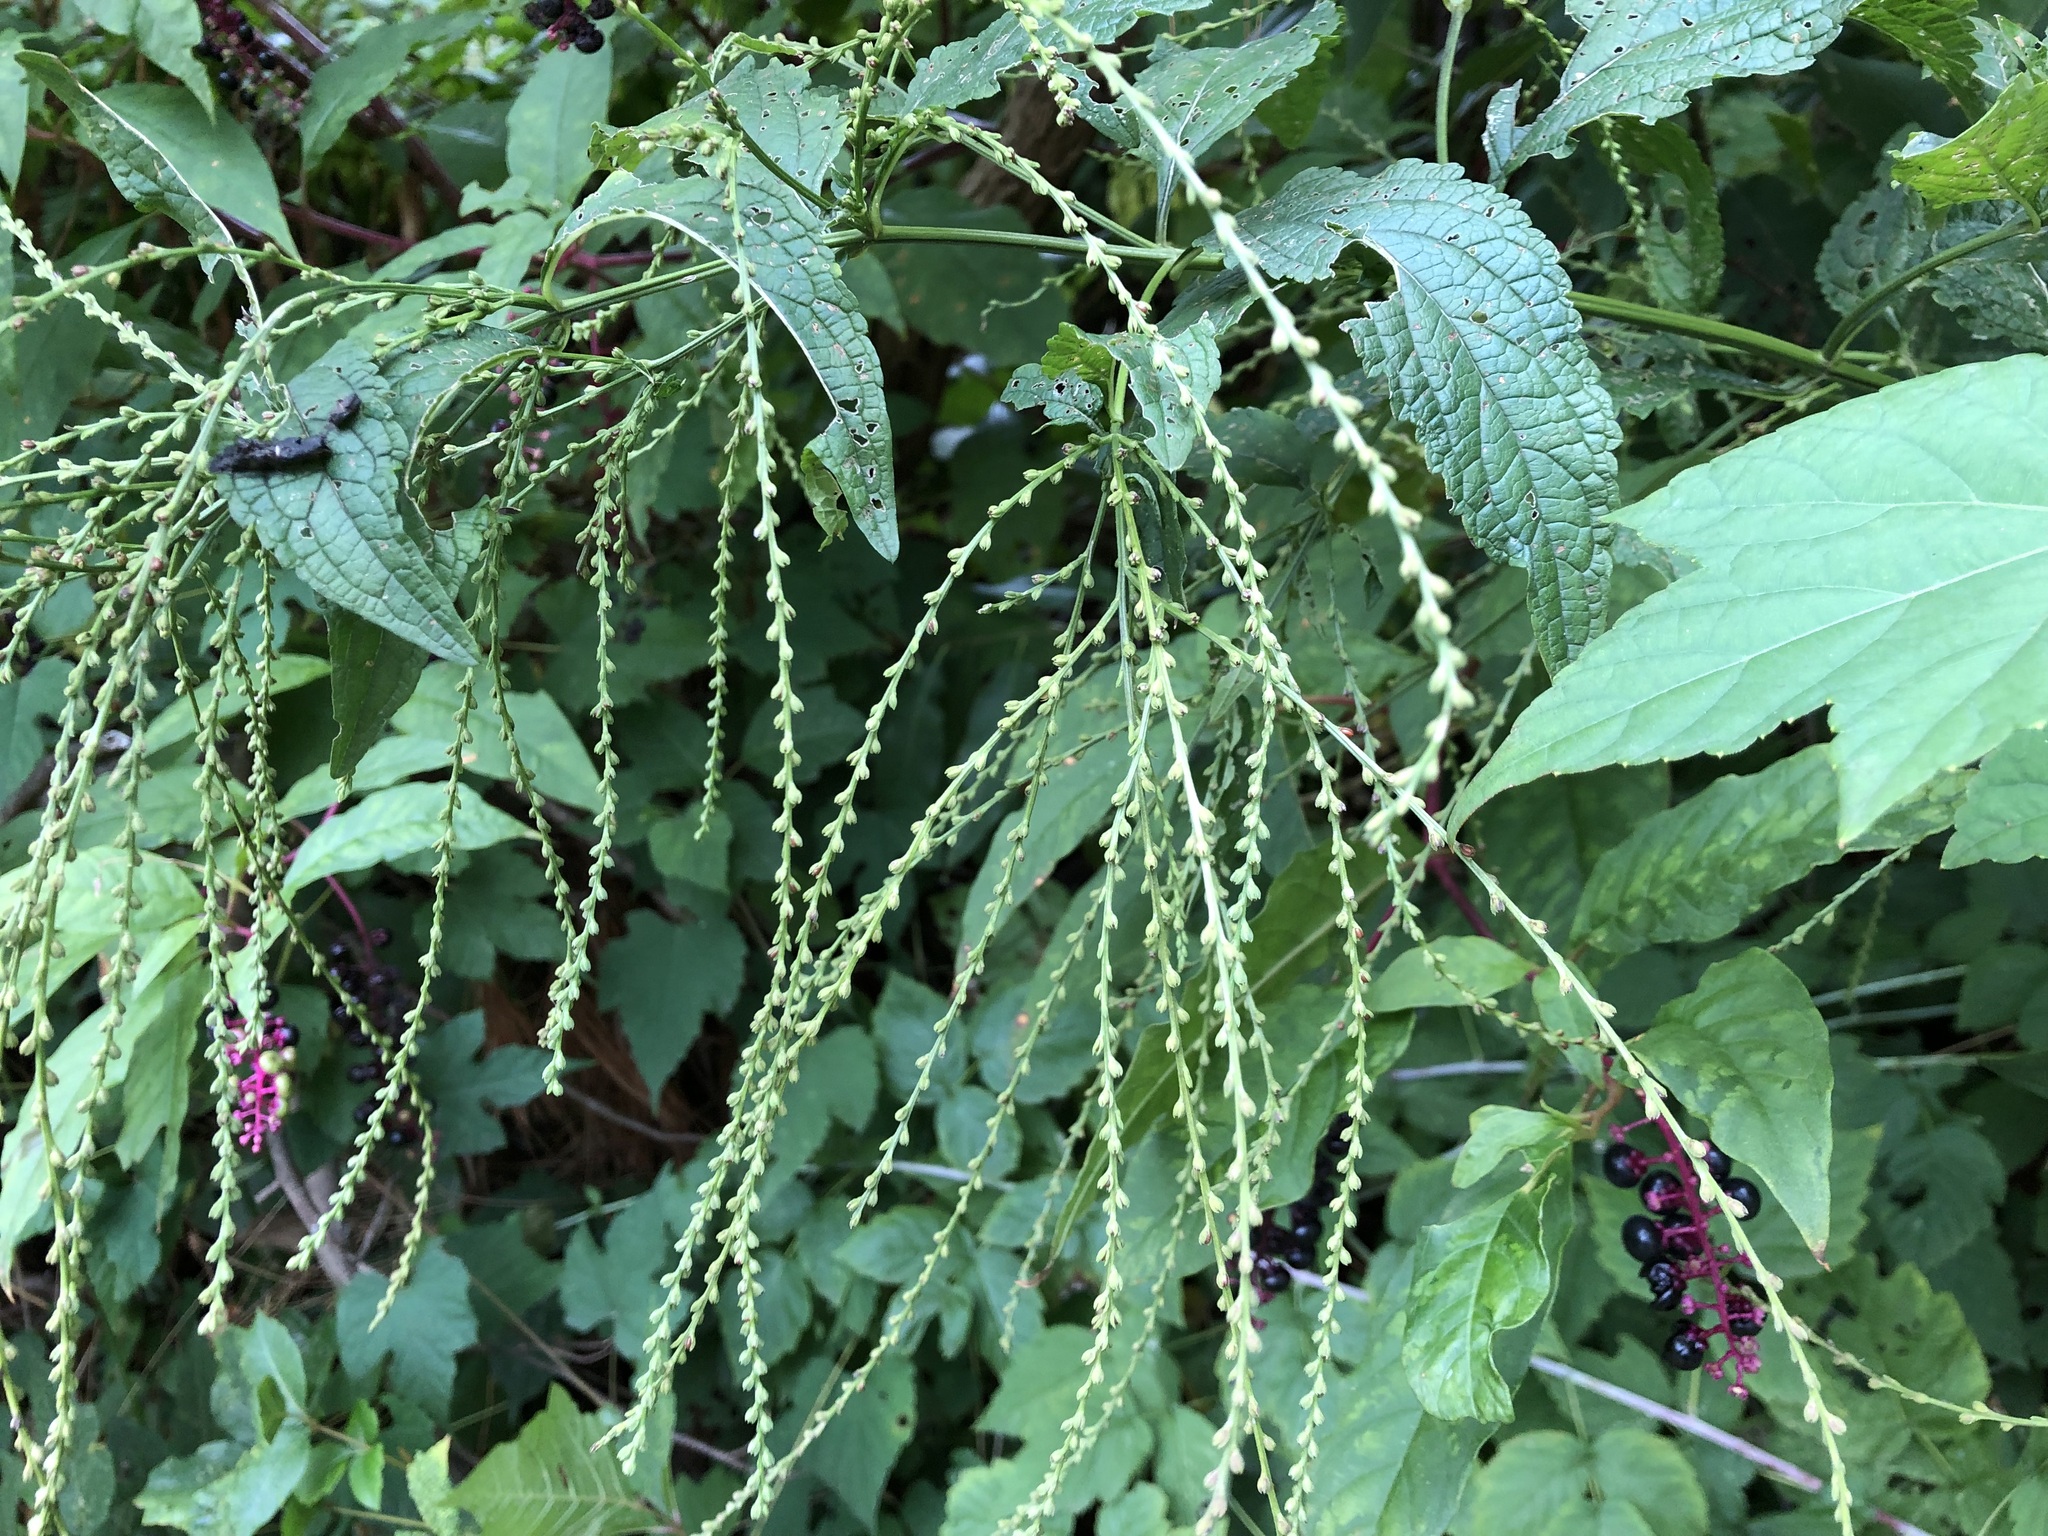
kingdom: Plantae
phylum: Tracheophyta
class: Magnoliopsida
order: Lamiales
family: Verbenaceae
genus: Verbena
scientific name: Verbena urticifolia
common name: Nettle-leaved vervain
